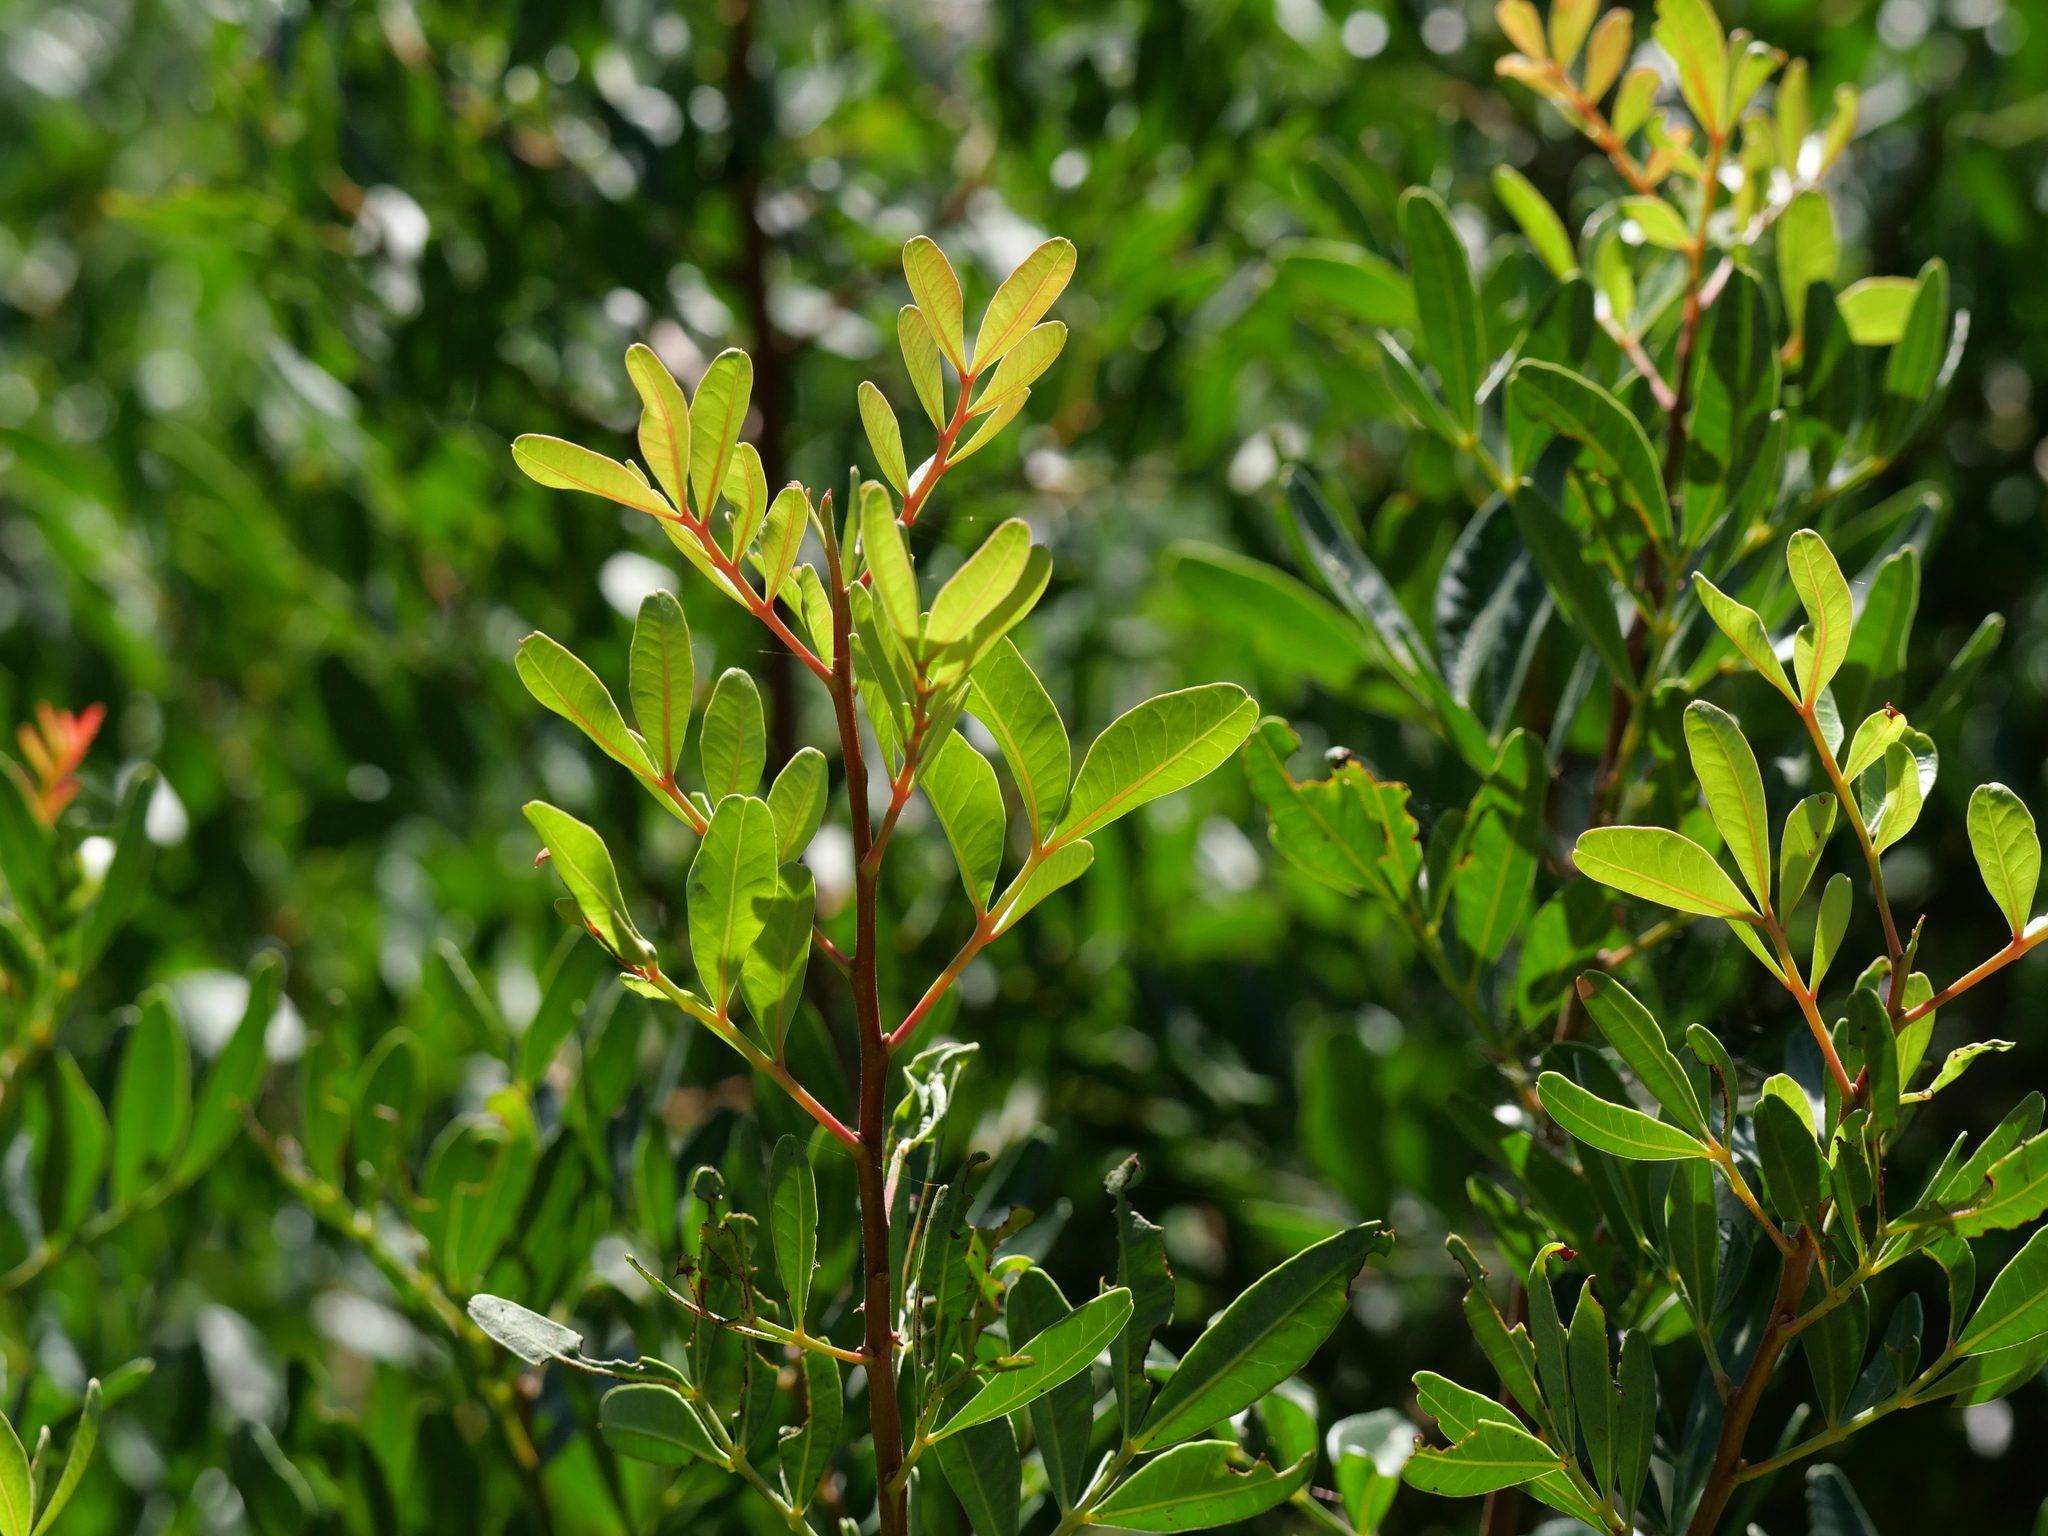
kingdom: Plantae
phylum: Tracheophyta
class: Magnoliopsida
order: Sapindales
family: Anacardiaceae
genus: Pistacia
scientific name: Pistacia lentiscus
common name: Lentisk
